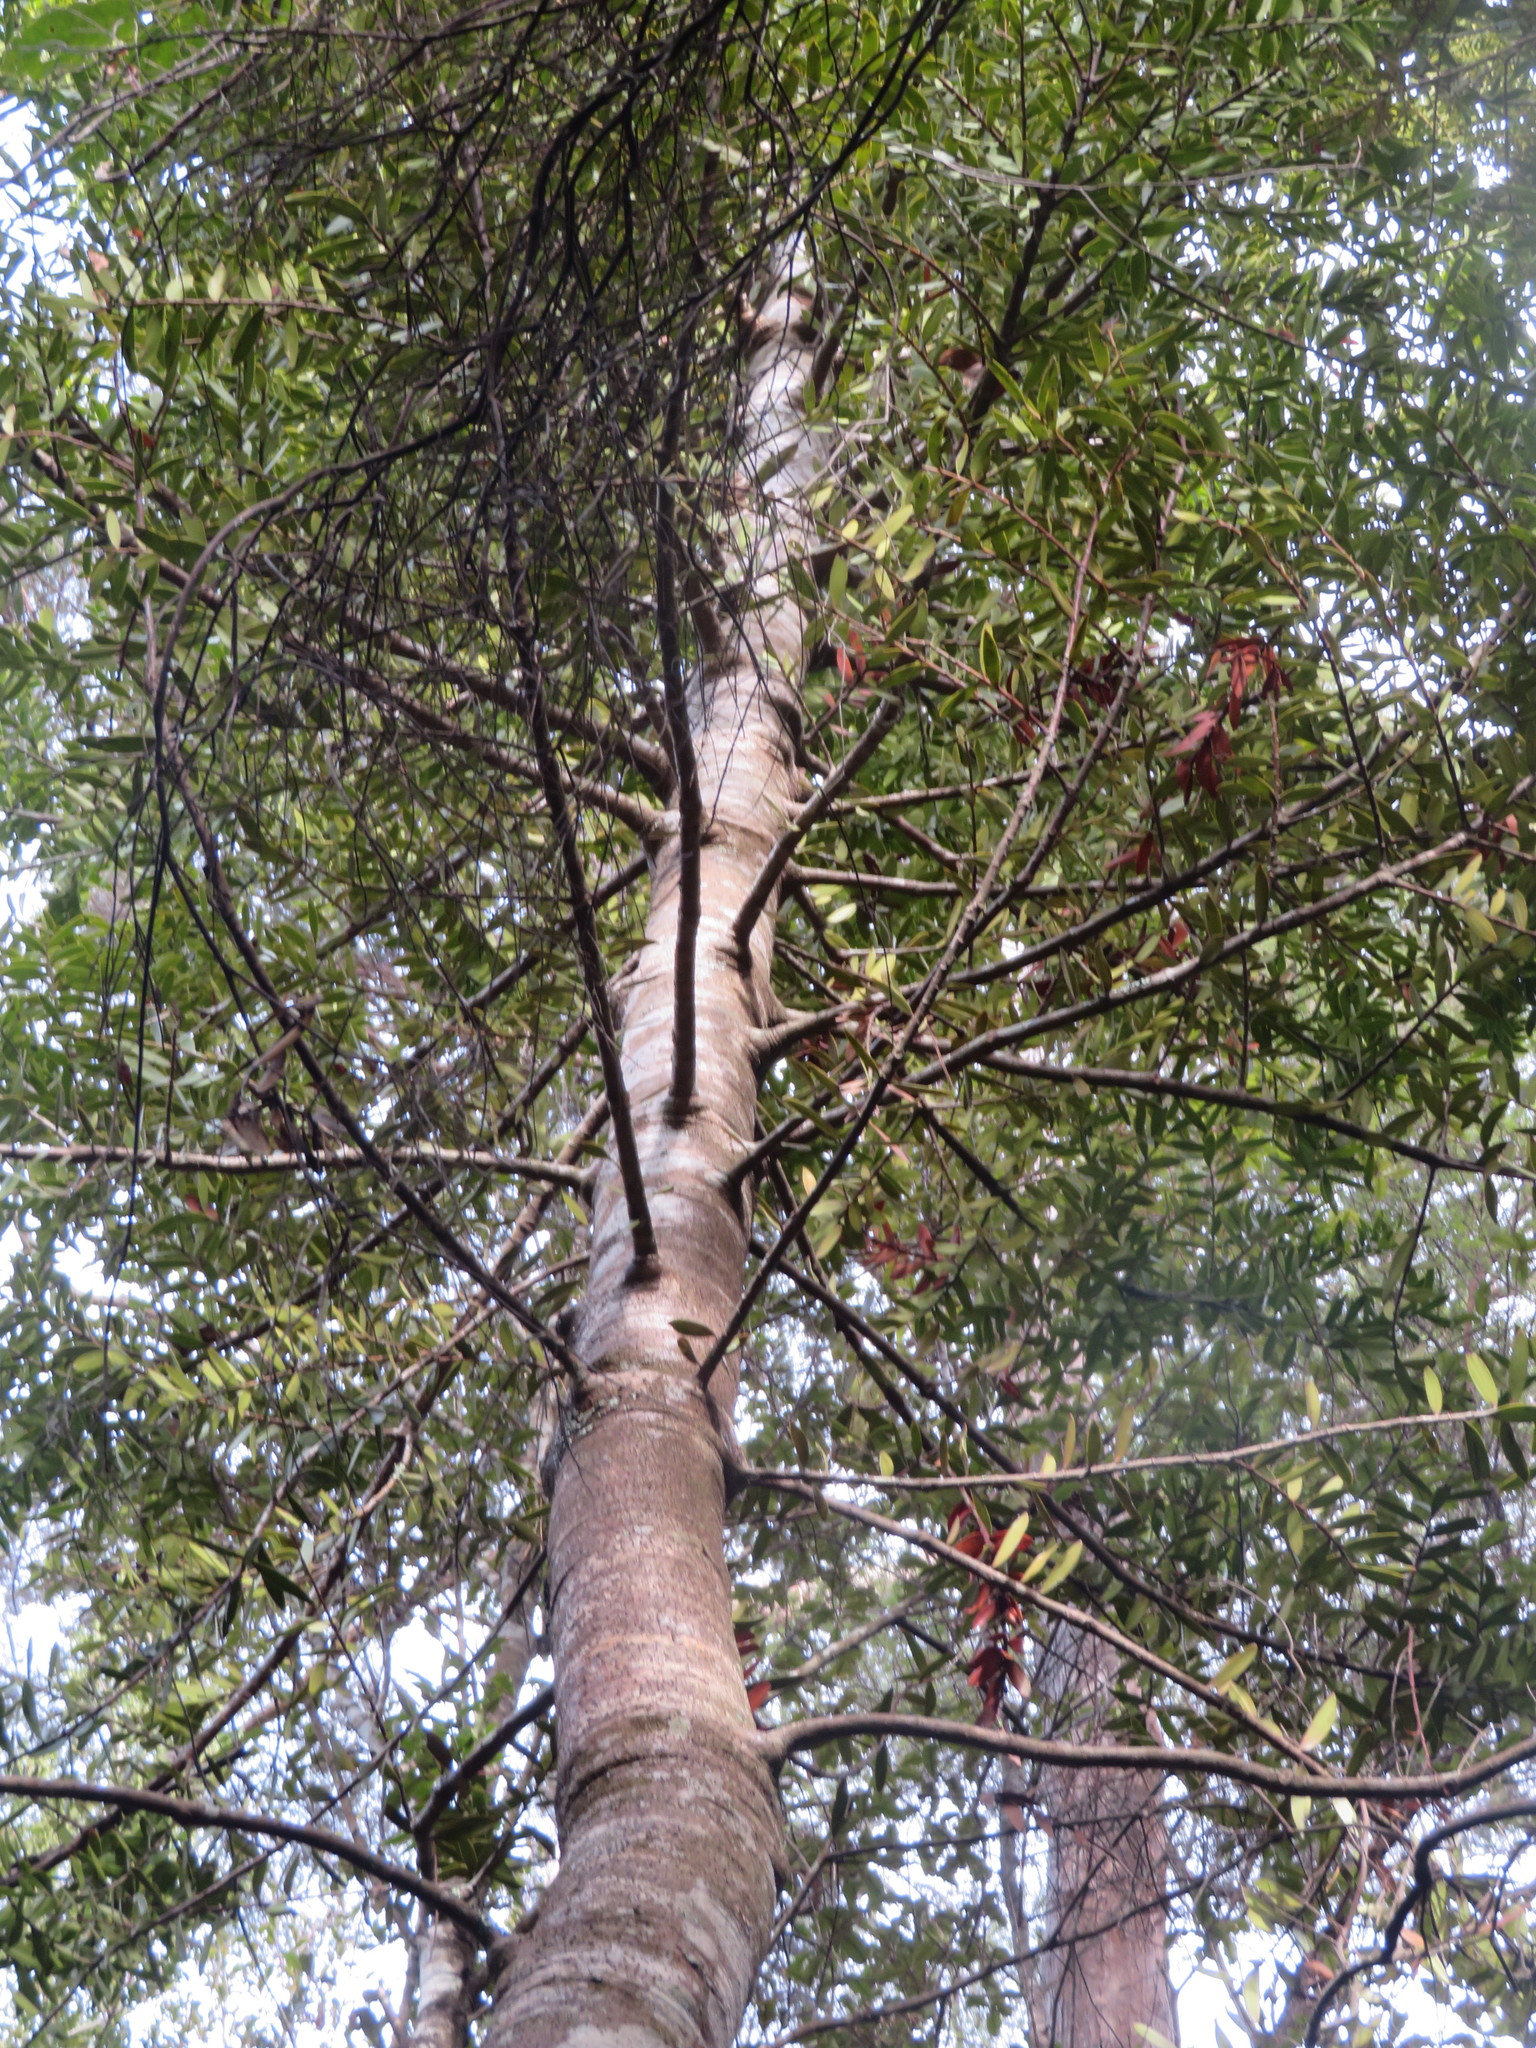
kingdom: Plantae
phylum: Tracheophyta
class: Pinopsida
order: Pinales
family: Araucariaceae
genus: Agathis
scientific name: Agathis australis
